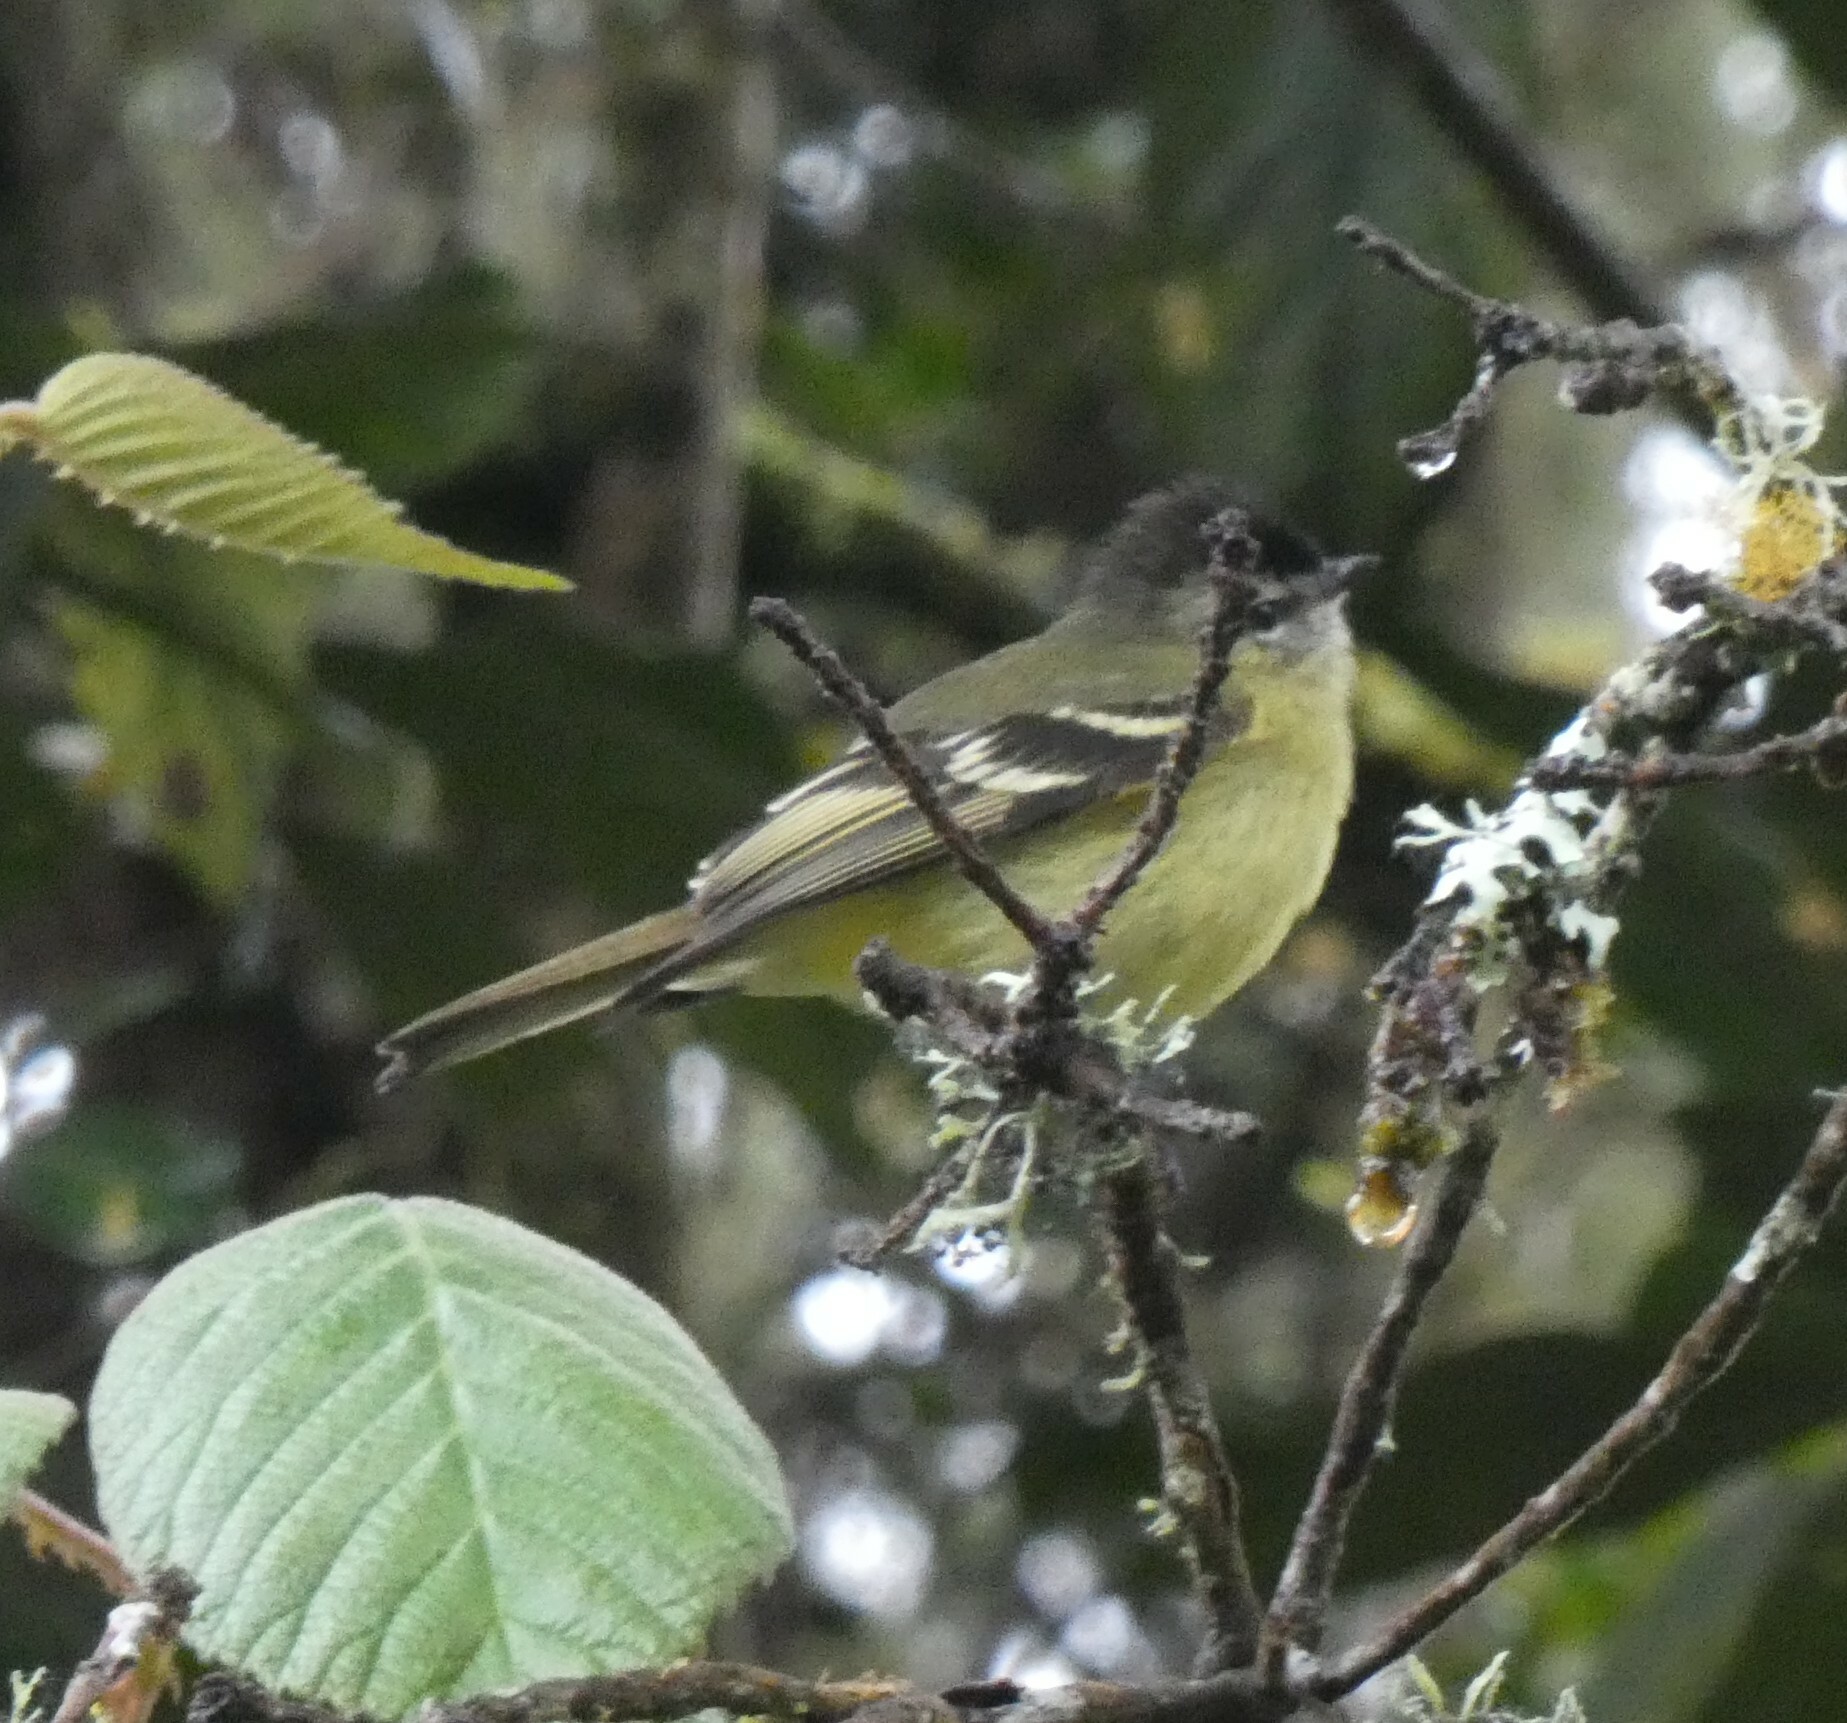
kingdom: Animalia
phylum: Chordata
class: Aves
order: Passeriformes
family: Tyrannidae
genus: Phyllomyias
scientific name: Phyllomyias nigrocapillus
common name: Black-capped tyrannulet
